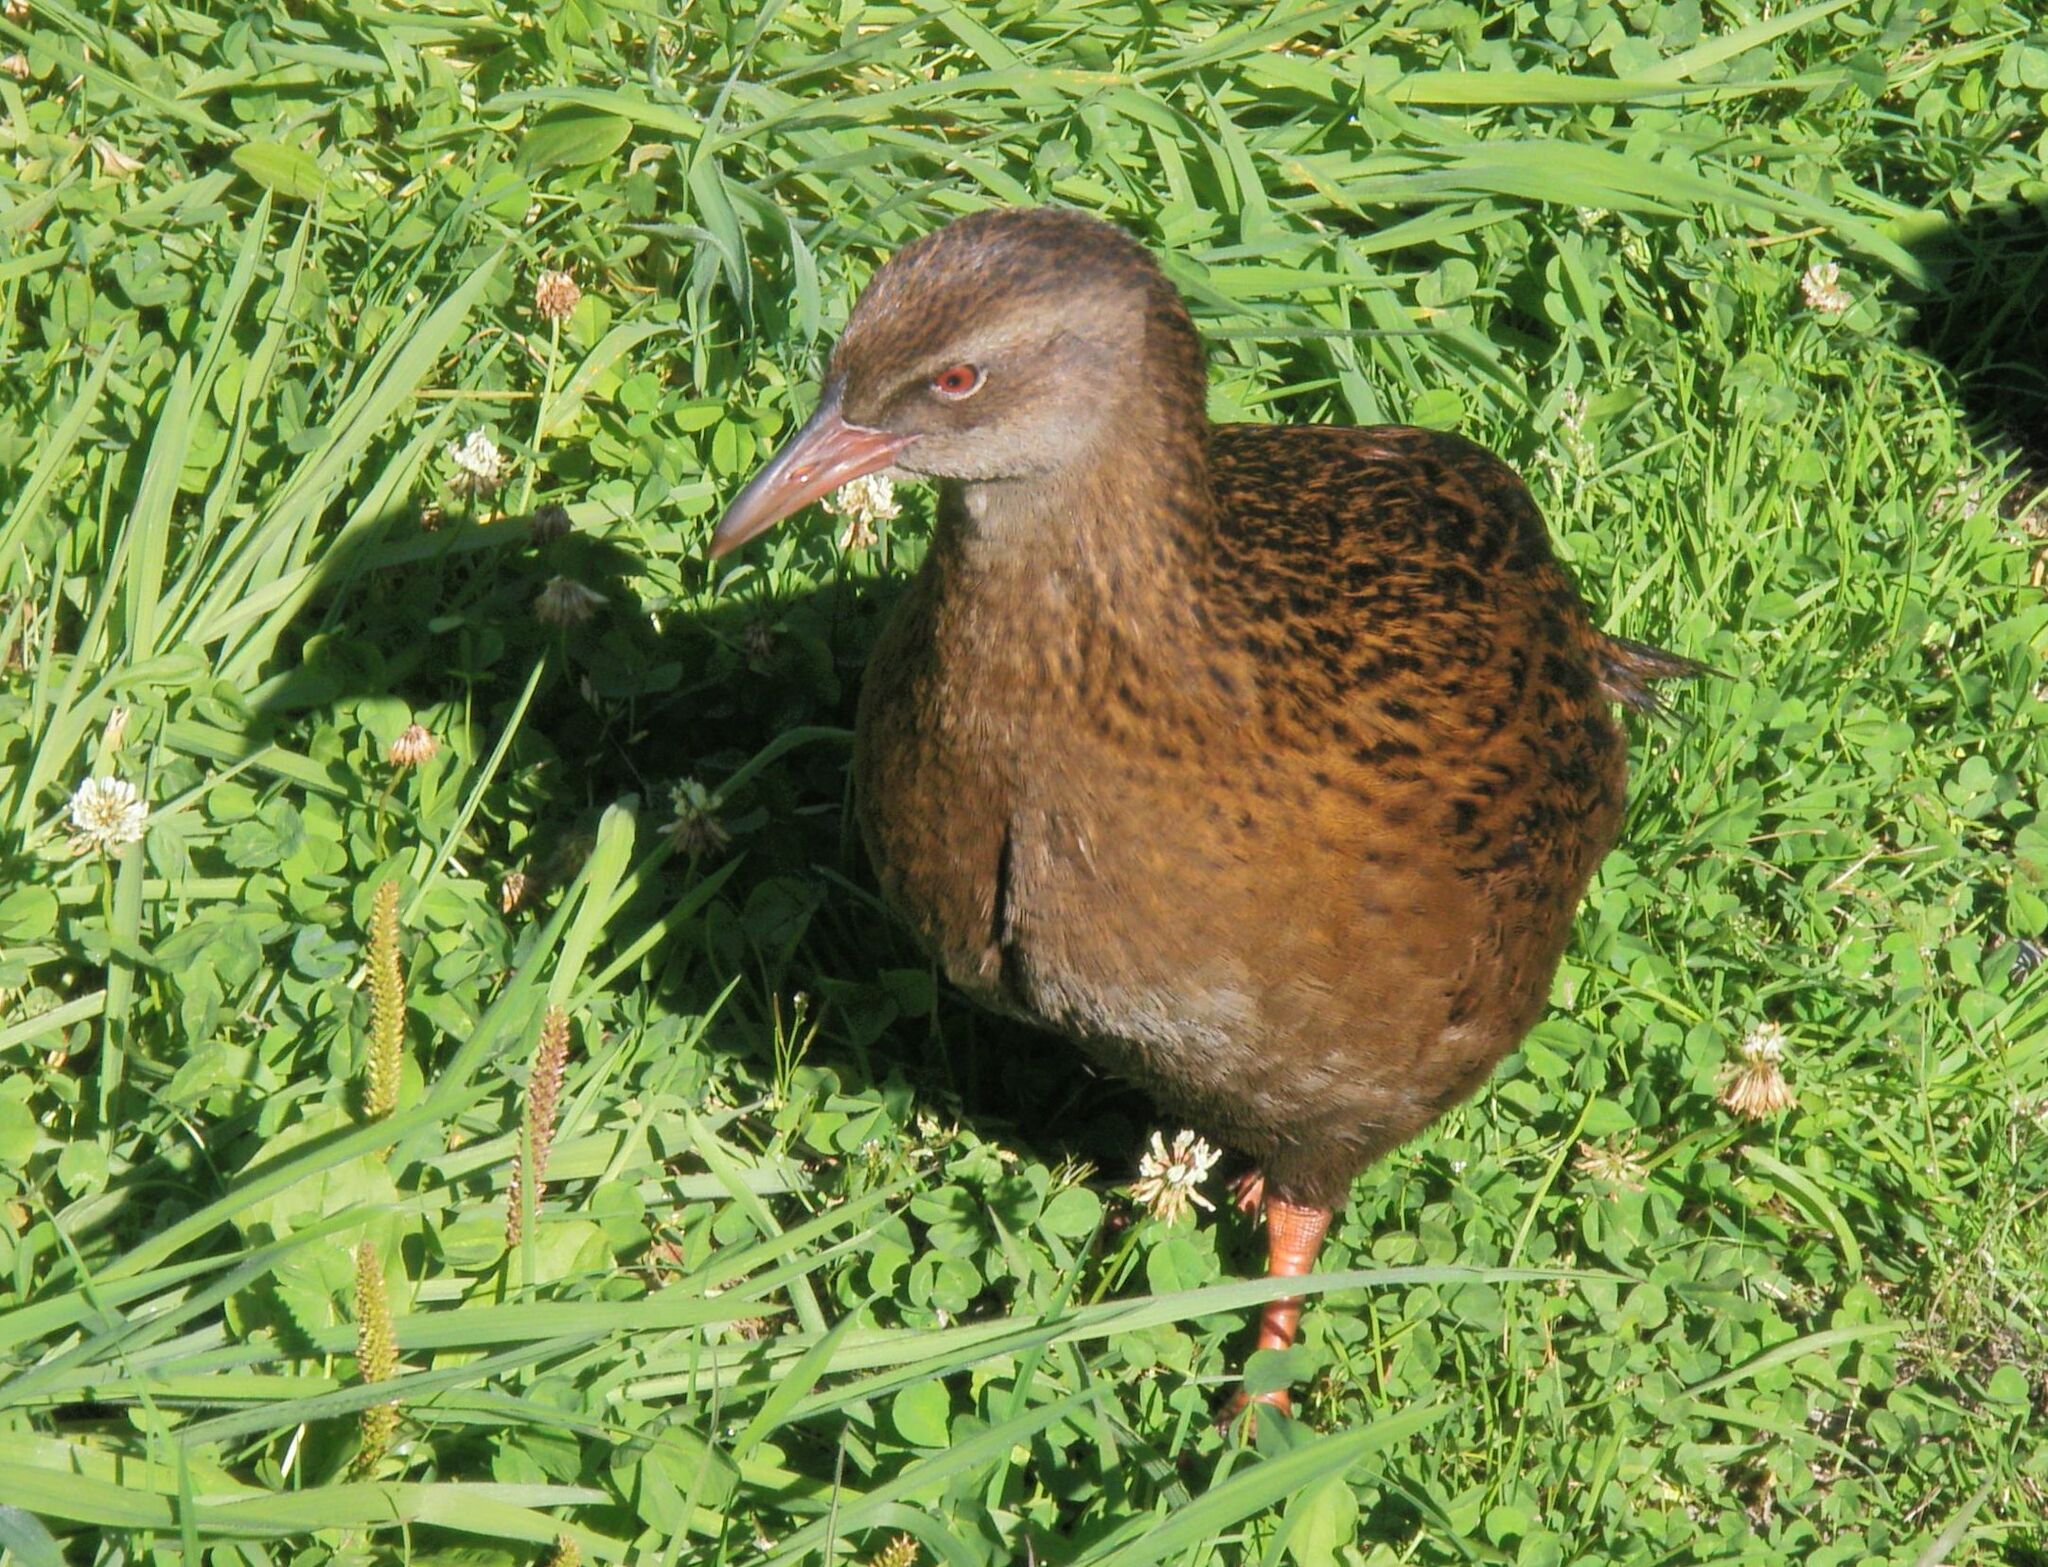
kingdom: Animalia
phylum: Chordata
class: Aves
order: Gruiformes
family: Rallidae
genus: Gallirallus
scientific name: Gallirallus australis
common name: Weka
